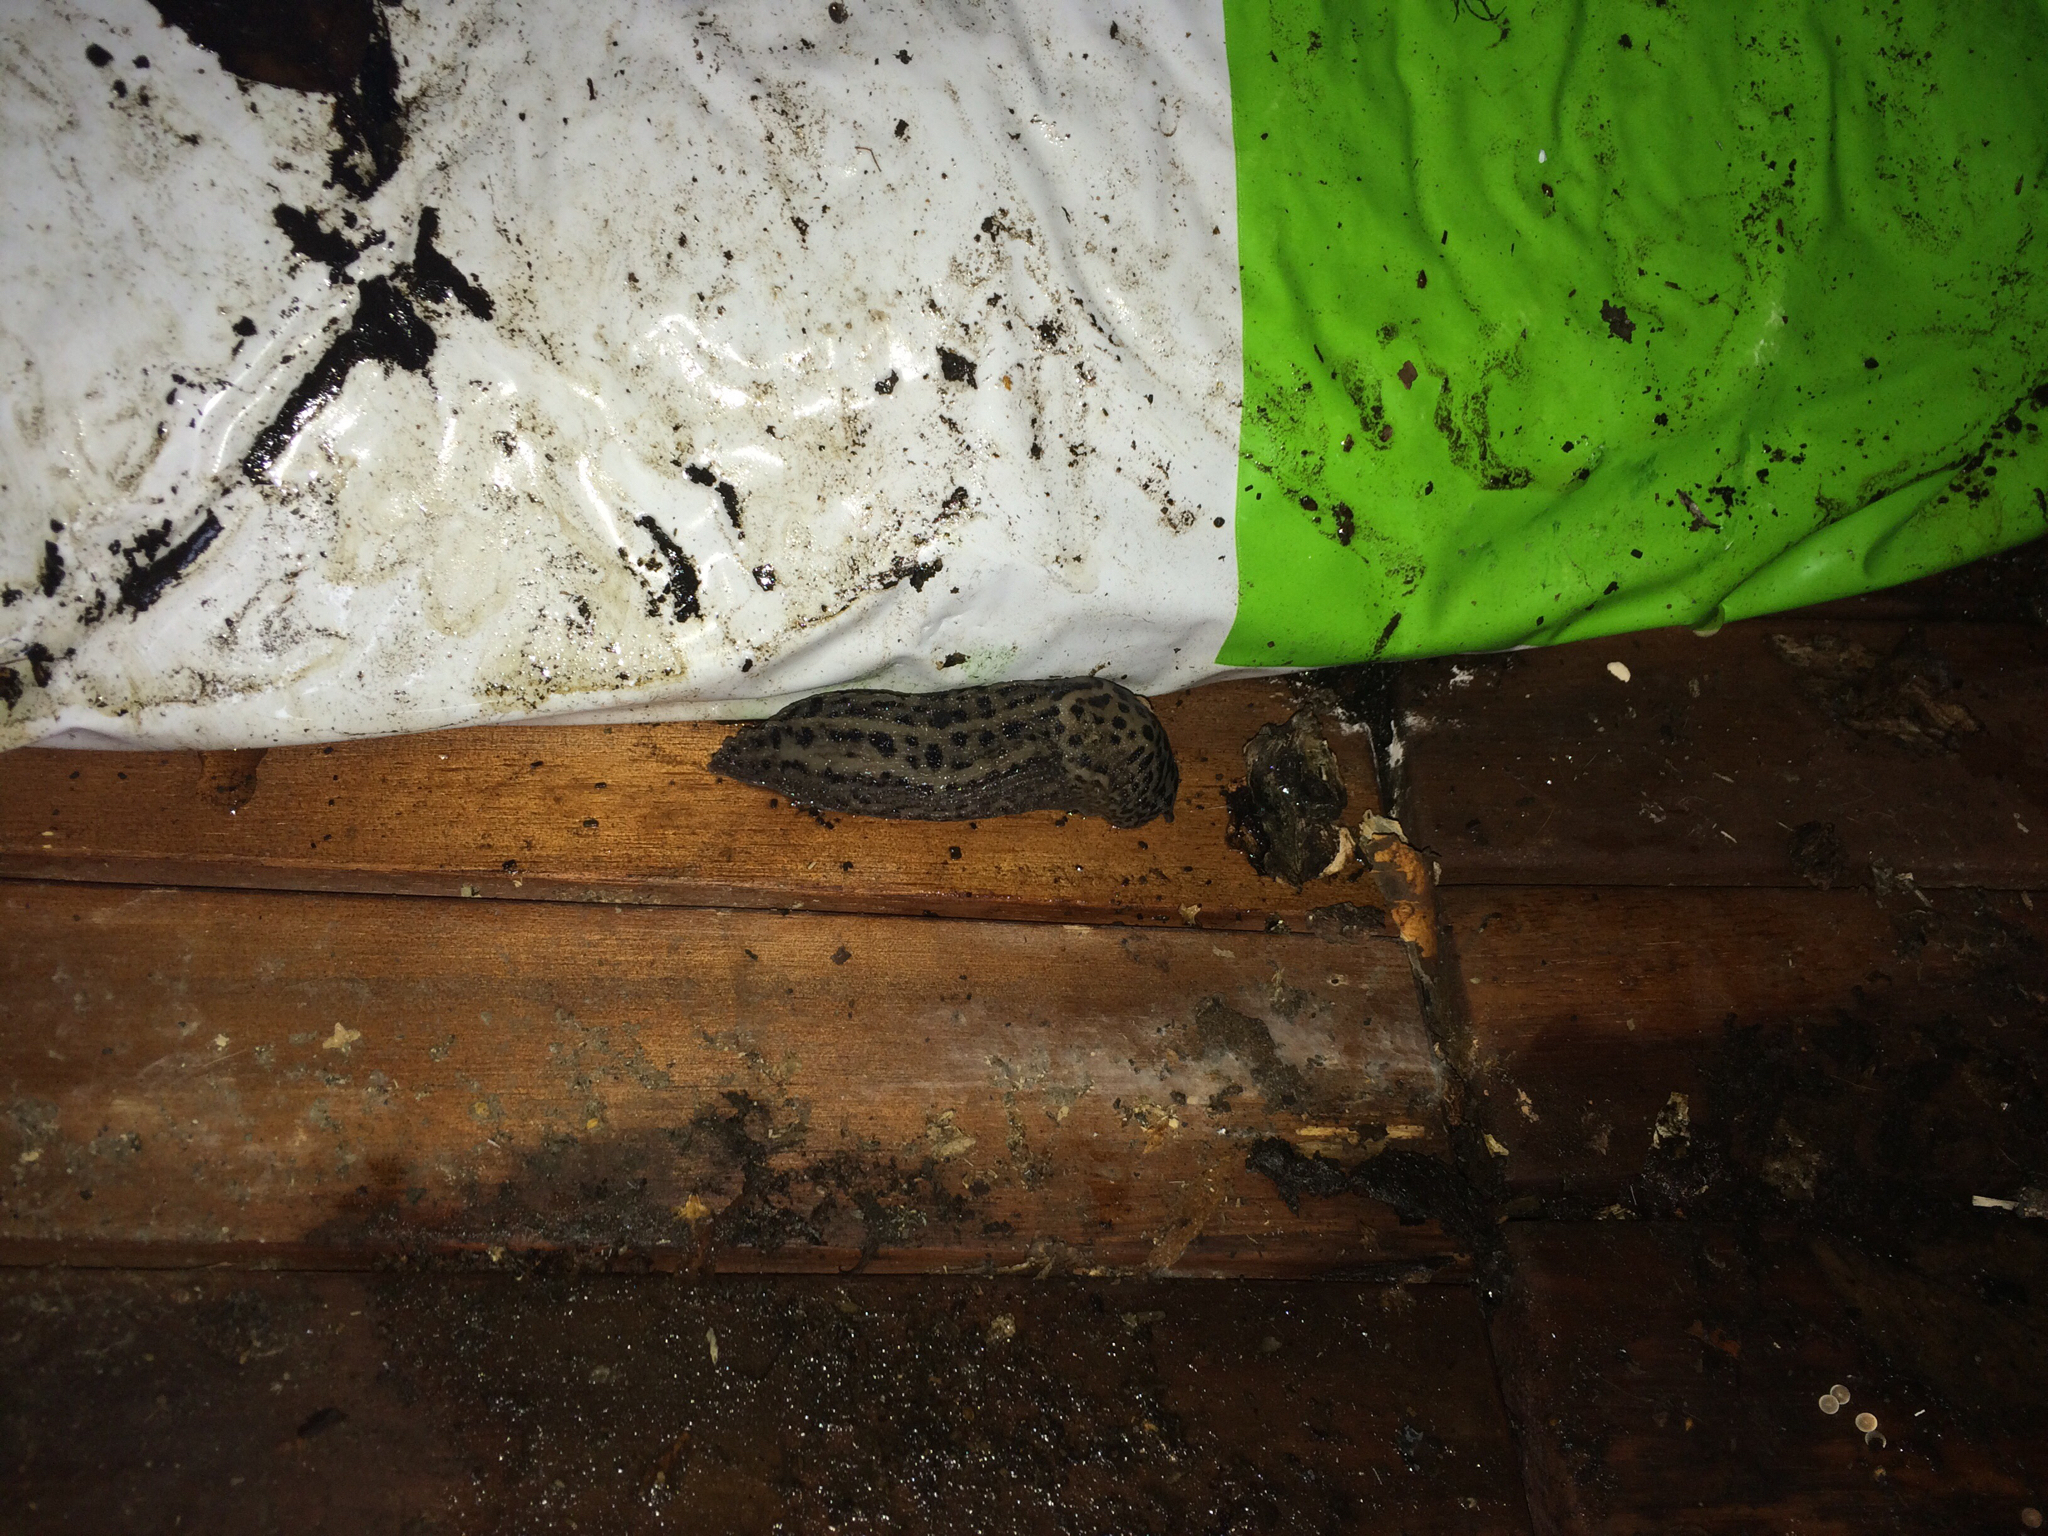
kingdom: Animalia
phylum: Mollusca
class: Gastropoda
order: Stylommatophora
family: Limacidae
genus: Limax
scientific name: Limax maximus
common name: Great grey slug
